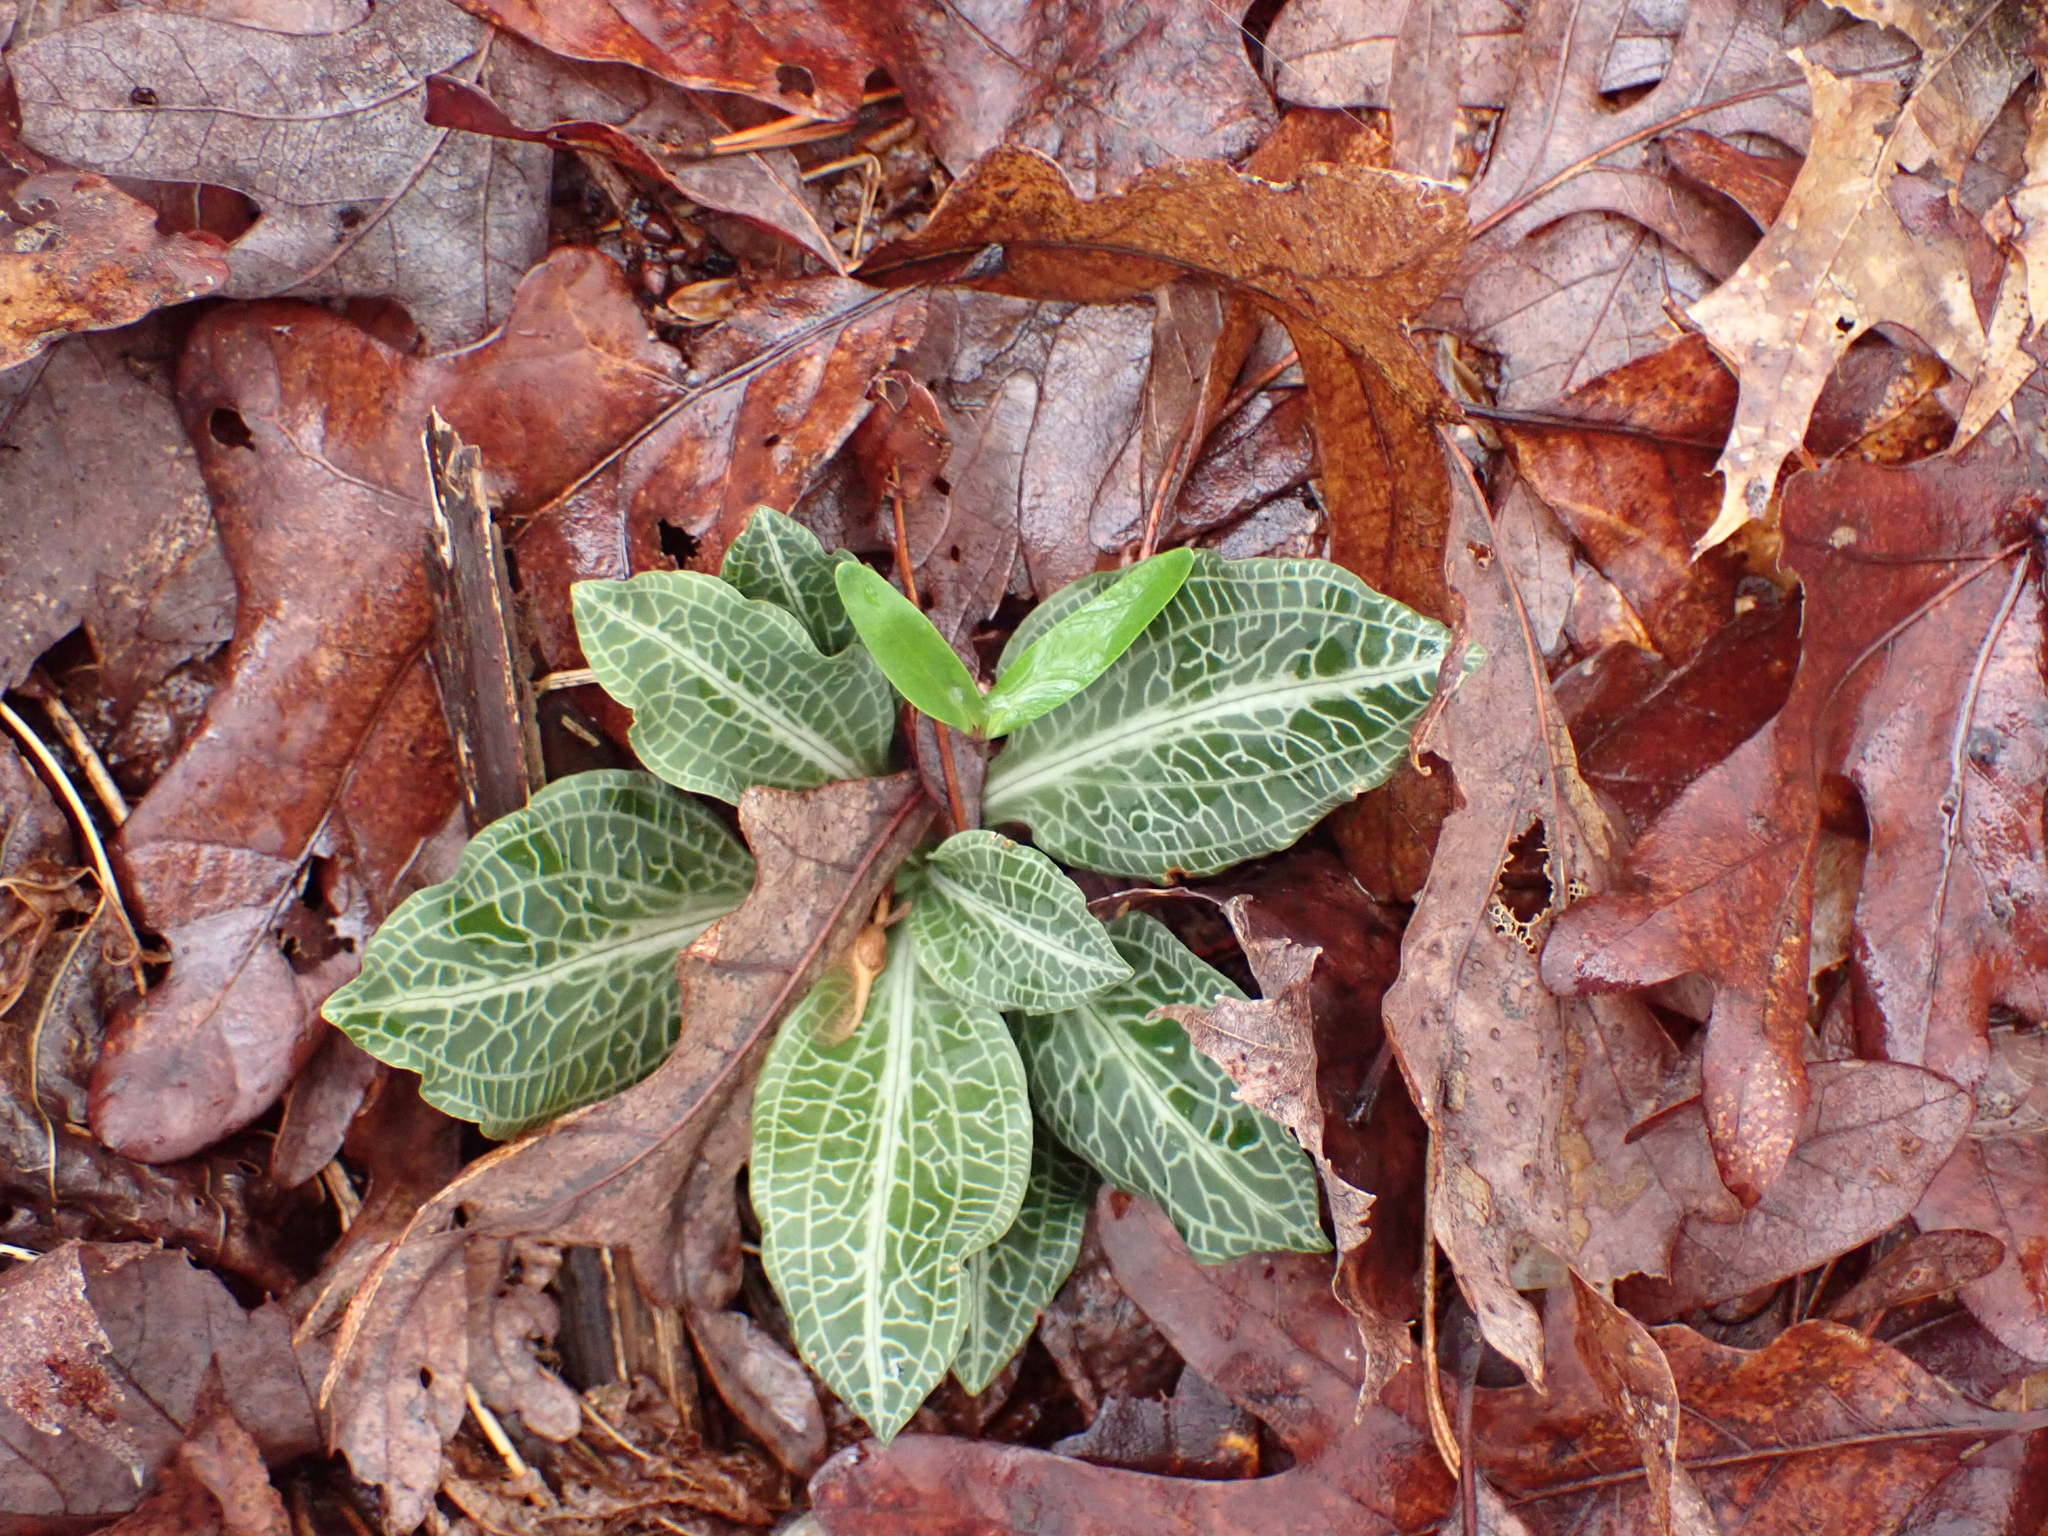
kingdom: Plantae
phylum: Tracheophyta
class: Liliopsida
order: Asparagales
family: Orchidaceae
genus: Goodyera
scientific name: Goodyera pubescens
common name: Downy rattlesnake-plantain
